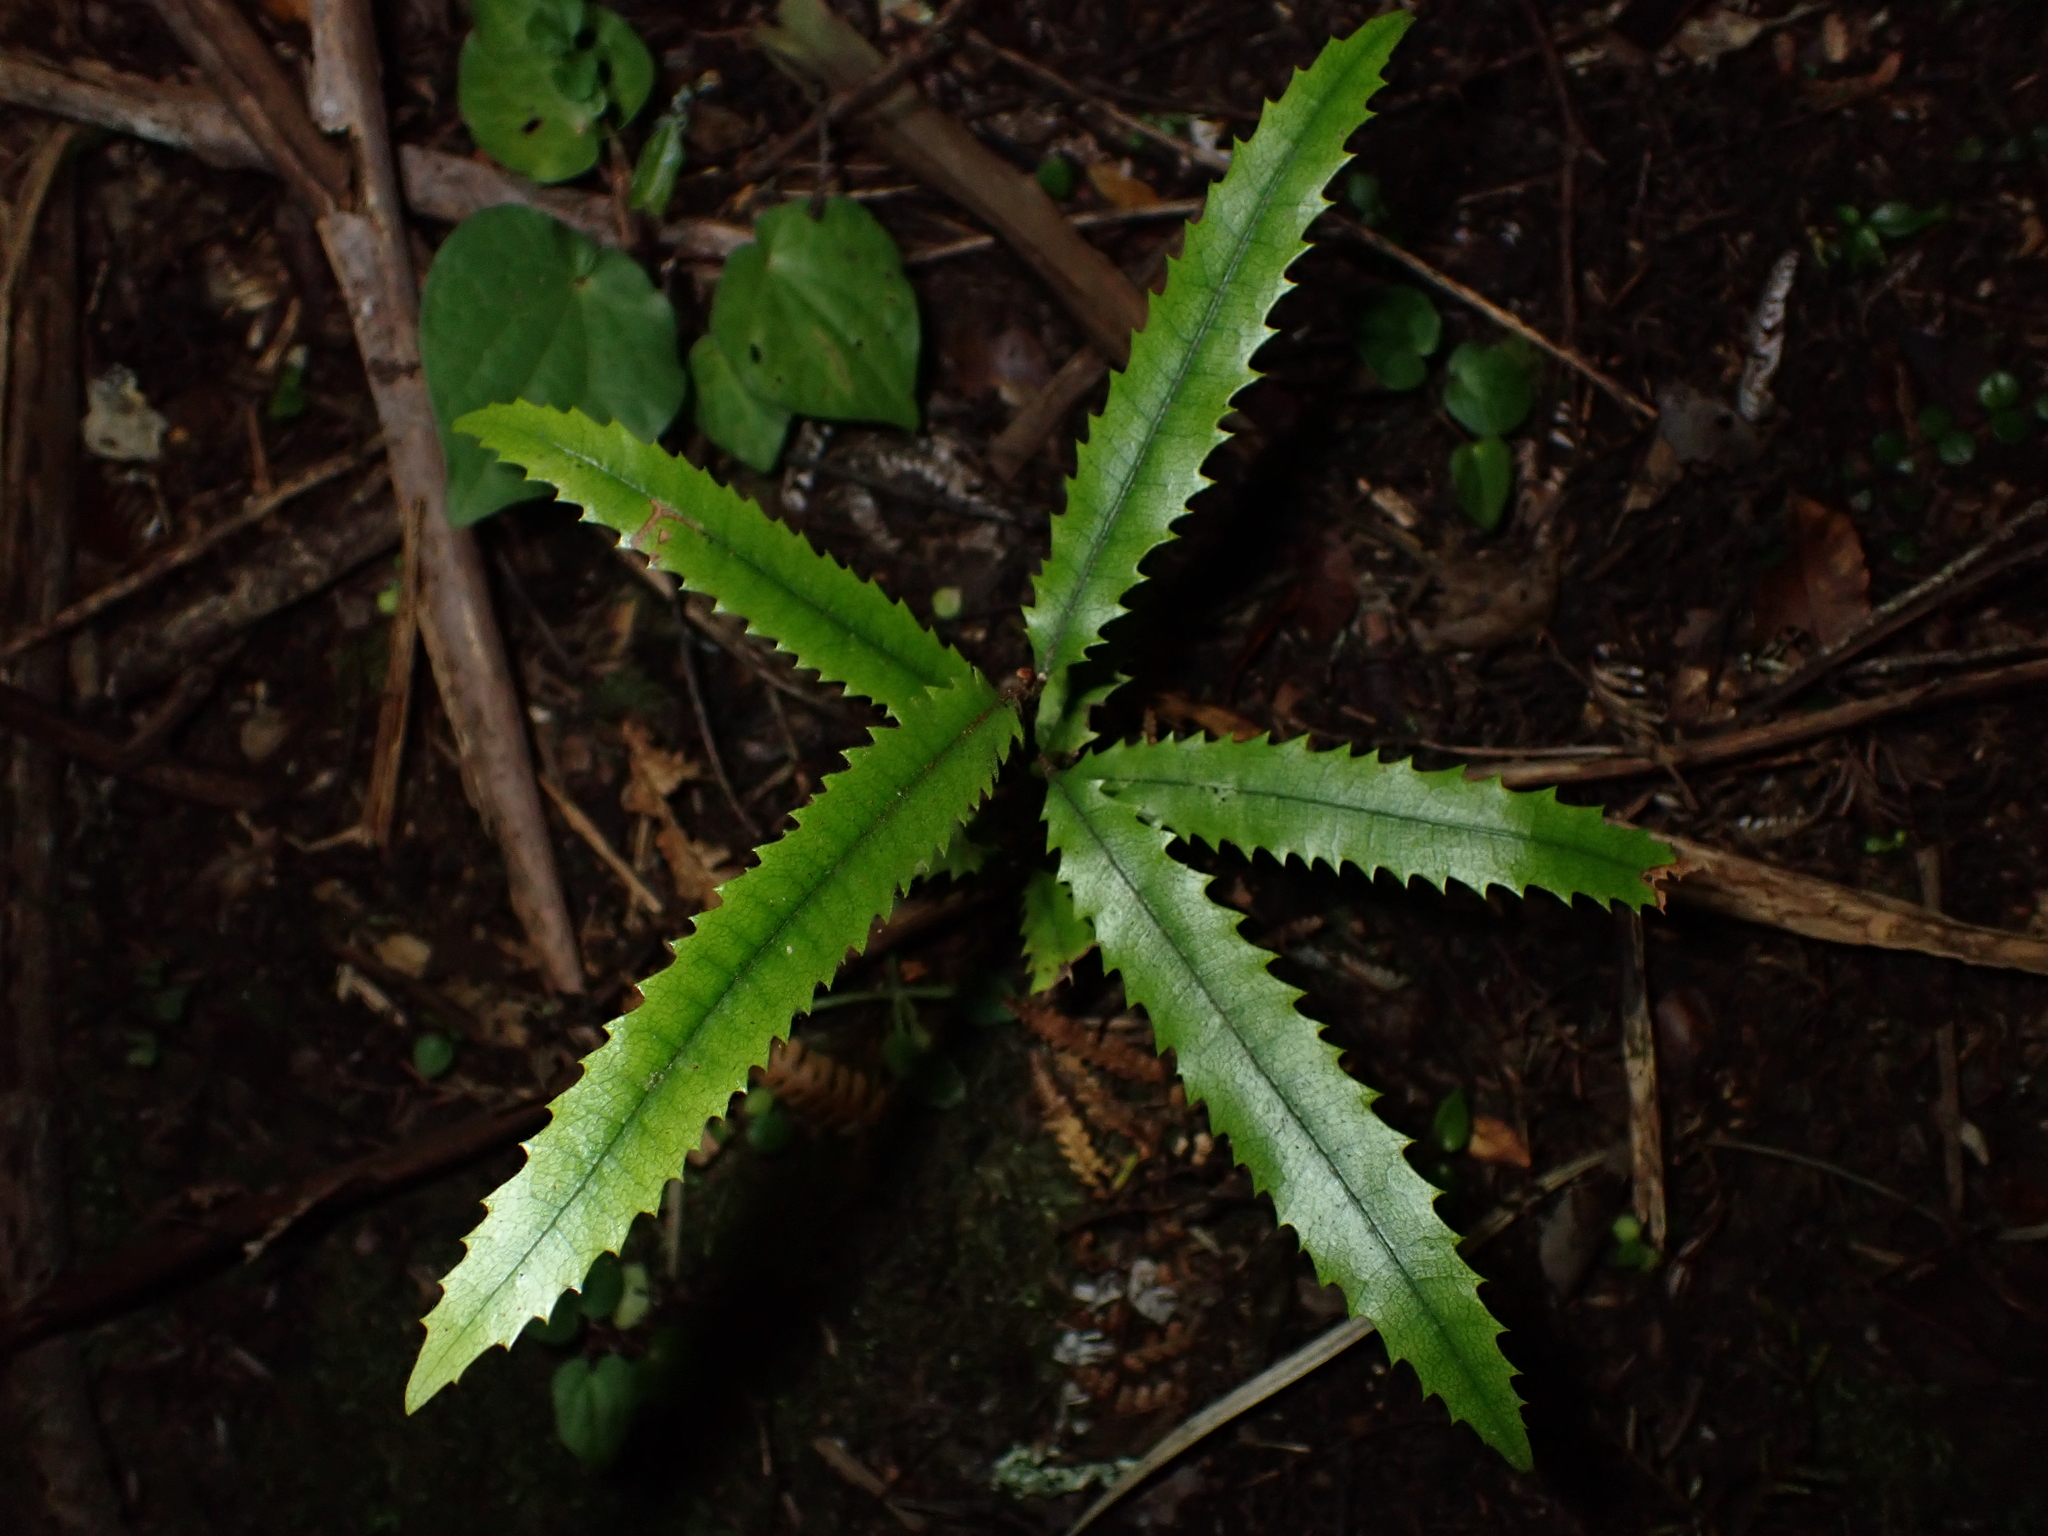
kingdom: Plantae
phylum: Tracheophyta
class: Magnoliopsida
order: Proteales
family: Proteaceae
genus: Knightia
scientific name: Knightia excelsa
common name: New zealand-honeysuckle
